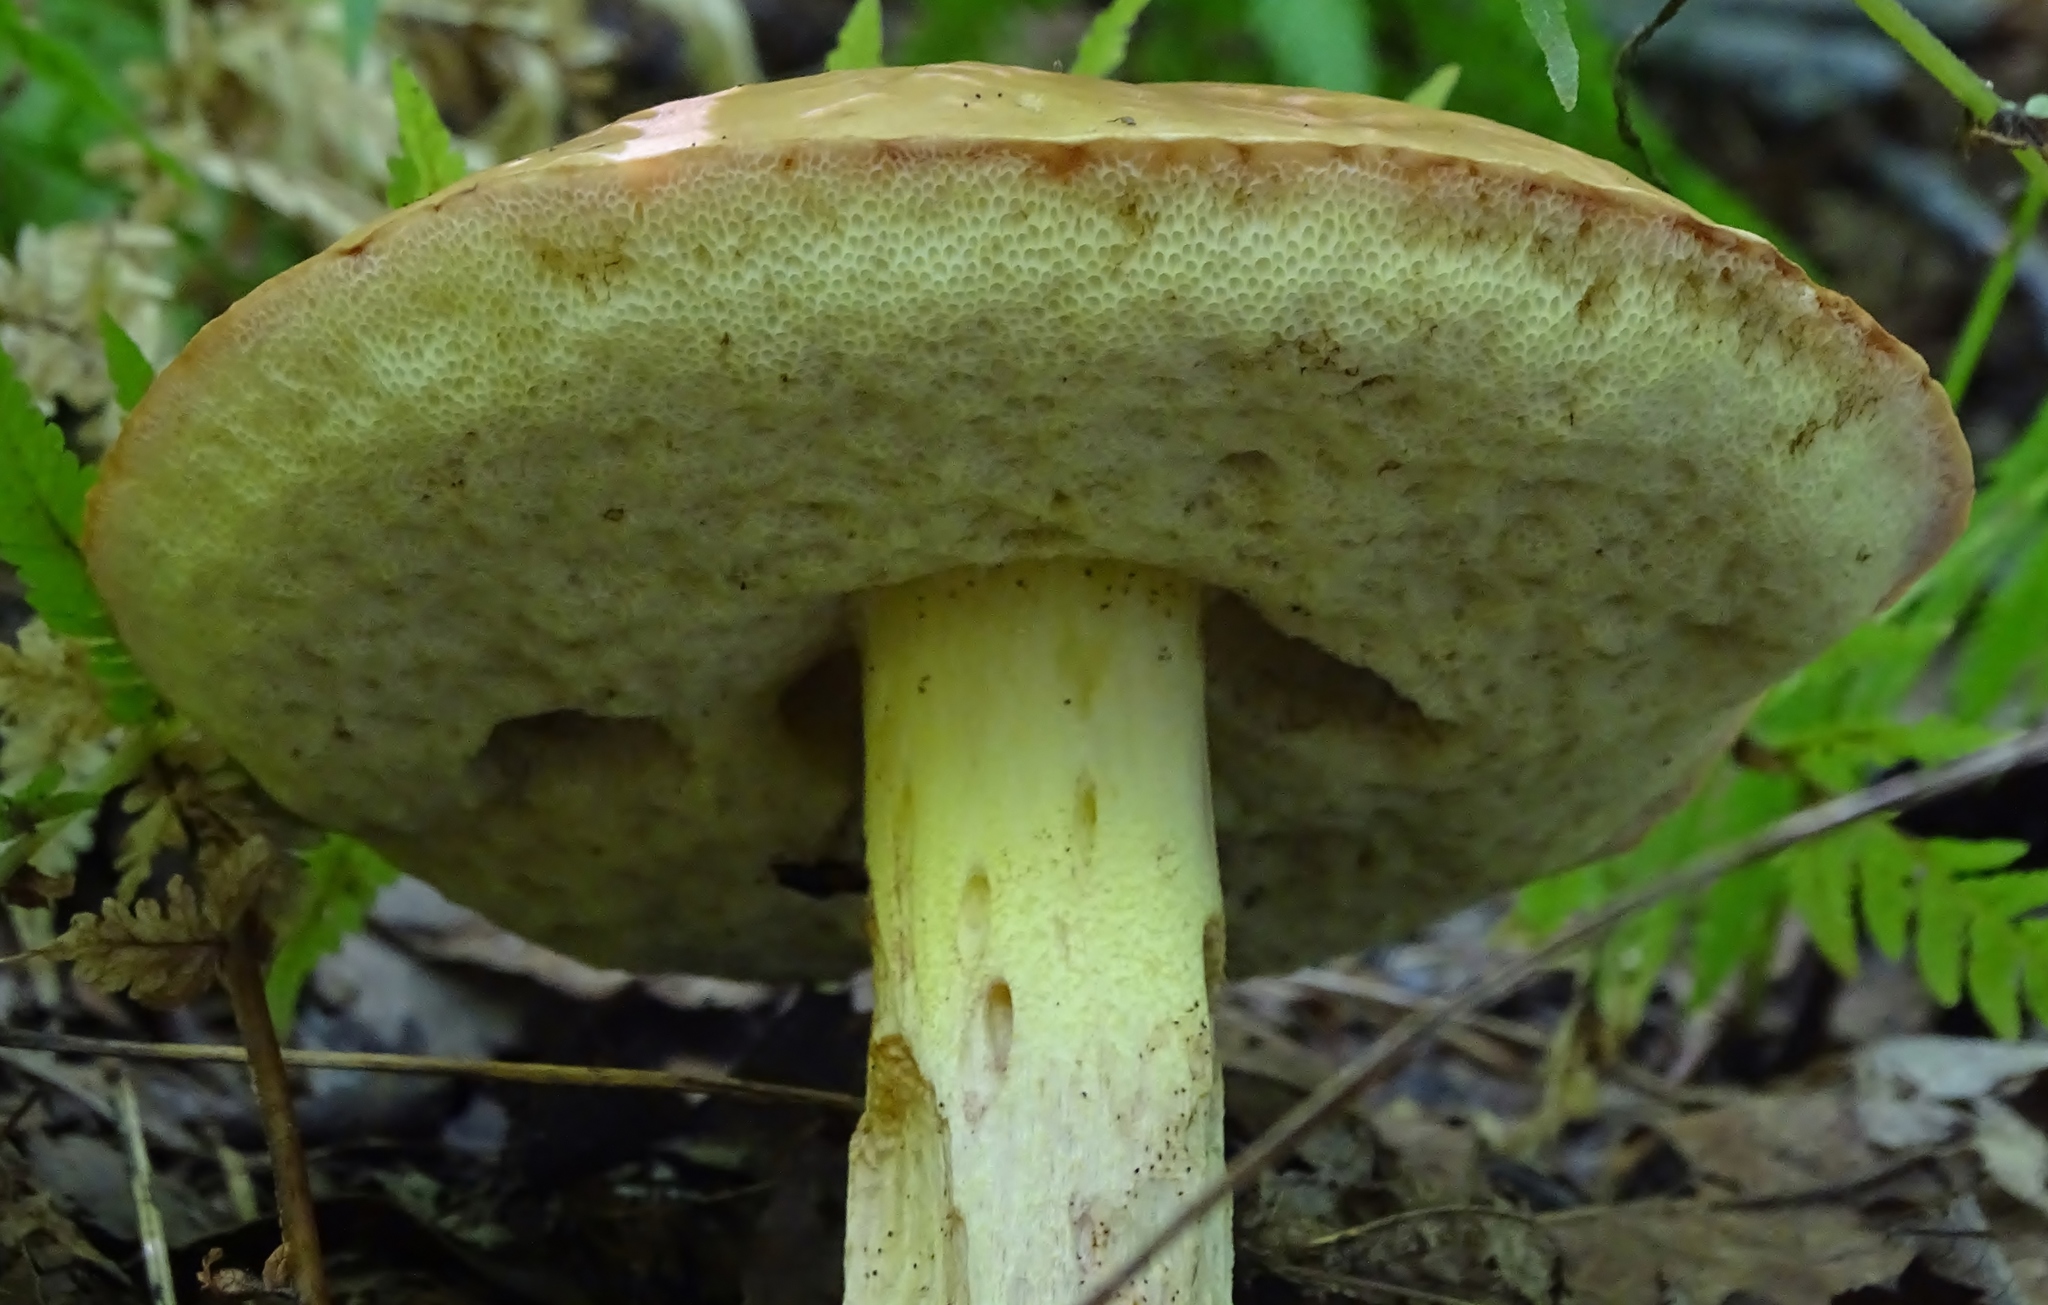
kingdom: Fungi
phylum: Basidiomycota
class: Agaricomycetes
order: Boletales
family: Boletaceae
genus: Hemileccinum
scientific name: Hemileccinum subglabripes
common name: Smoothish-stemmed bolete
